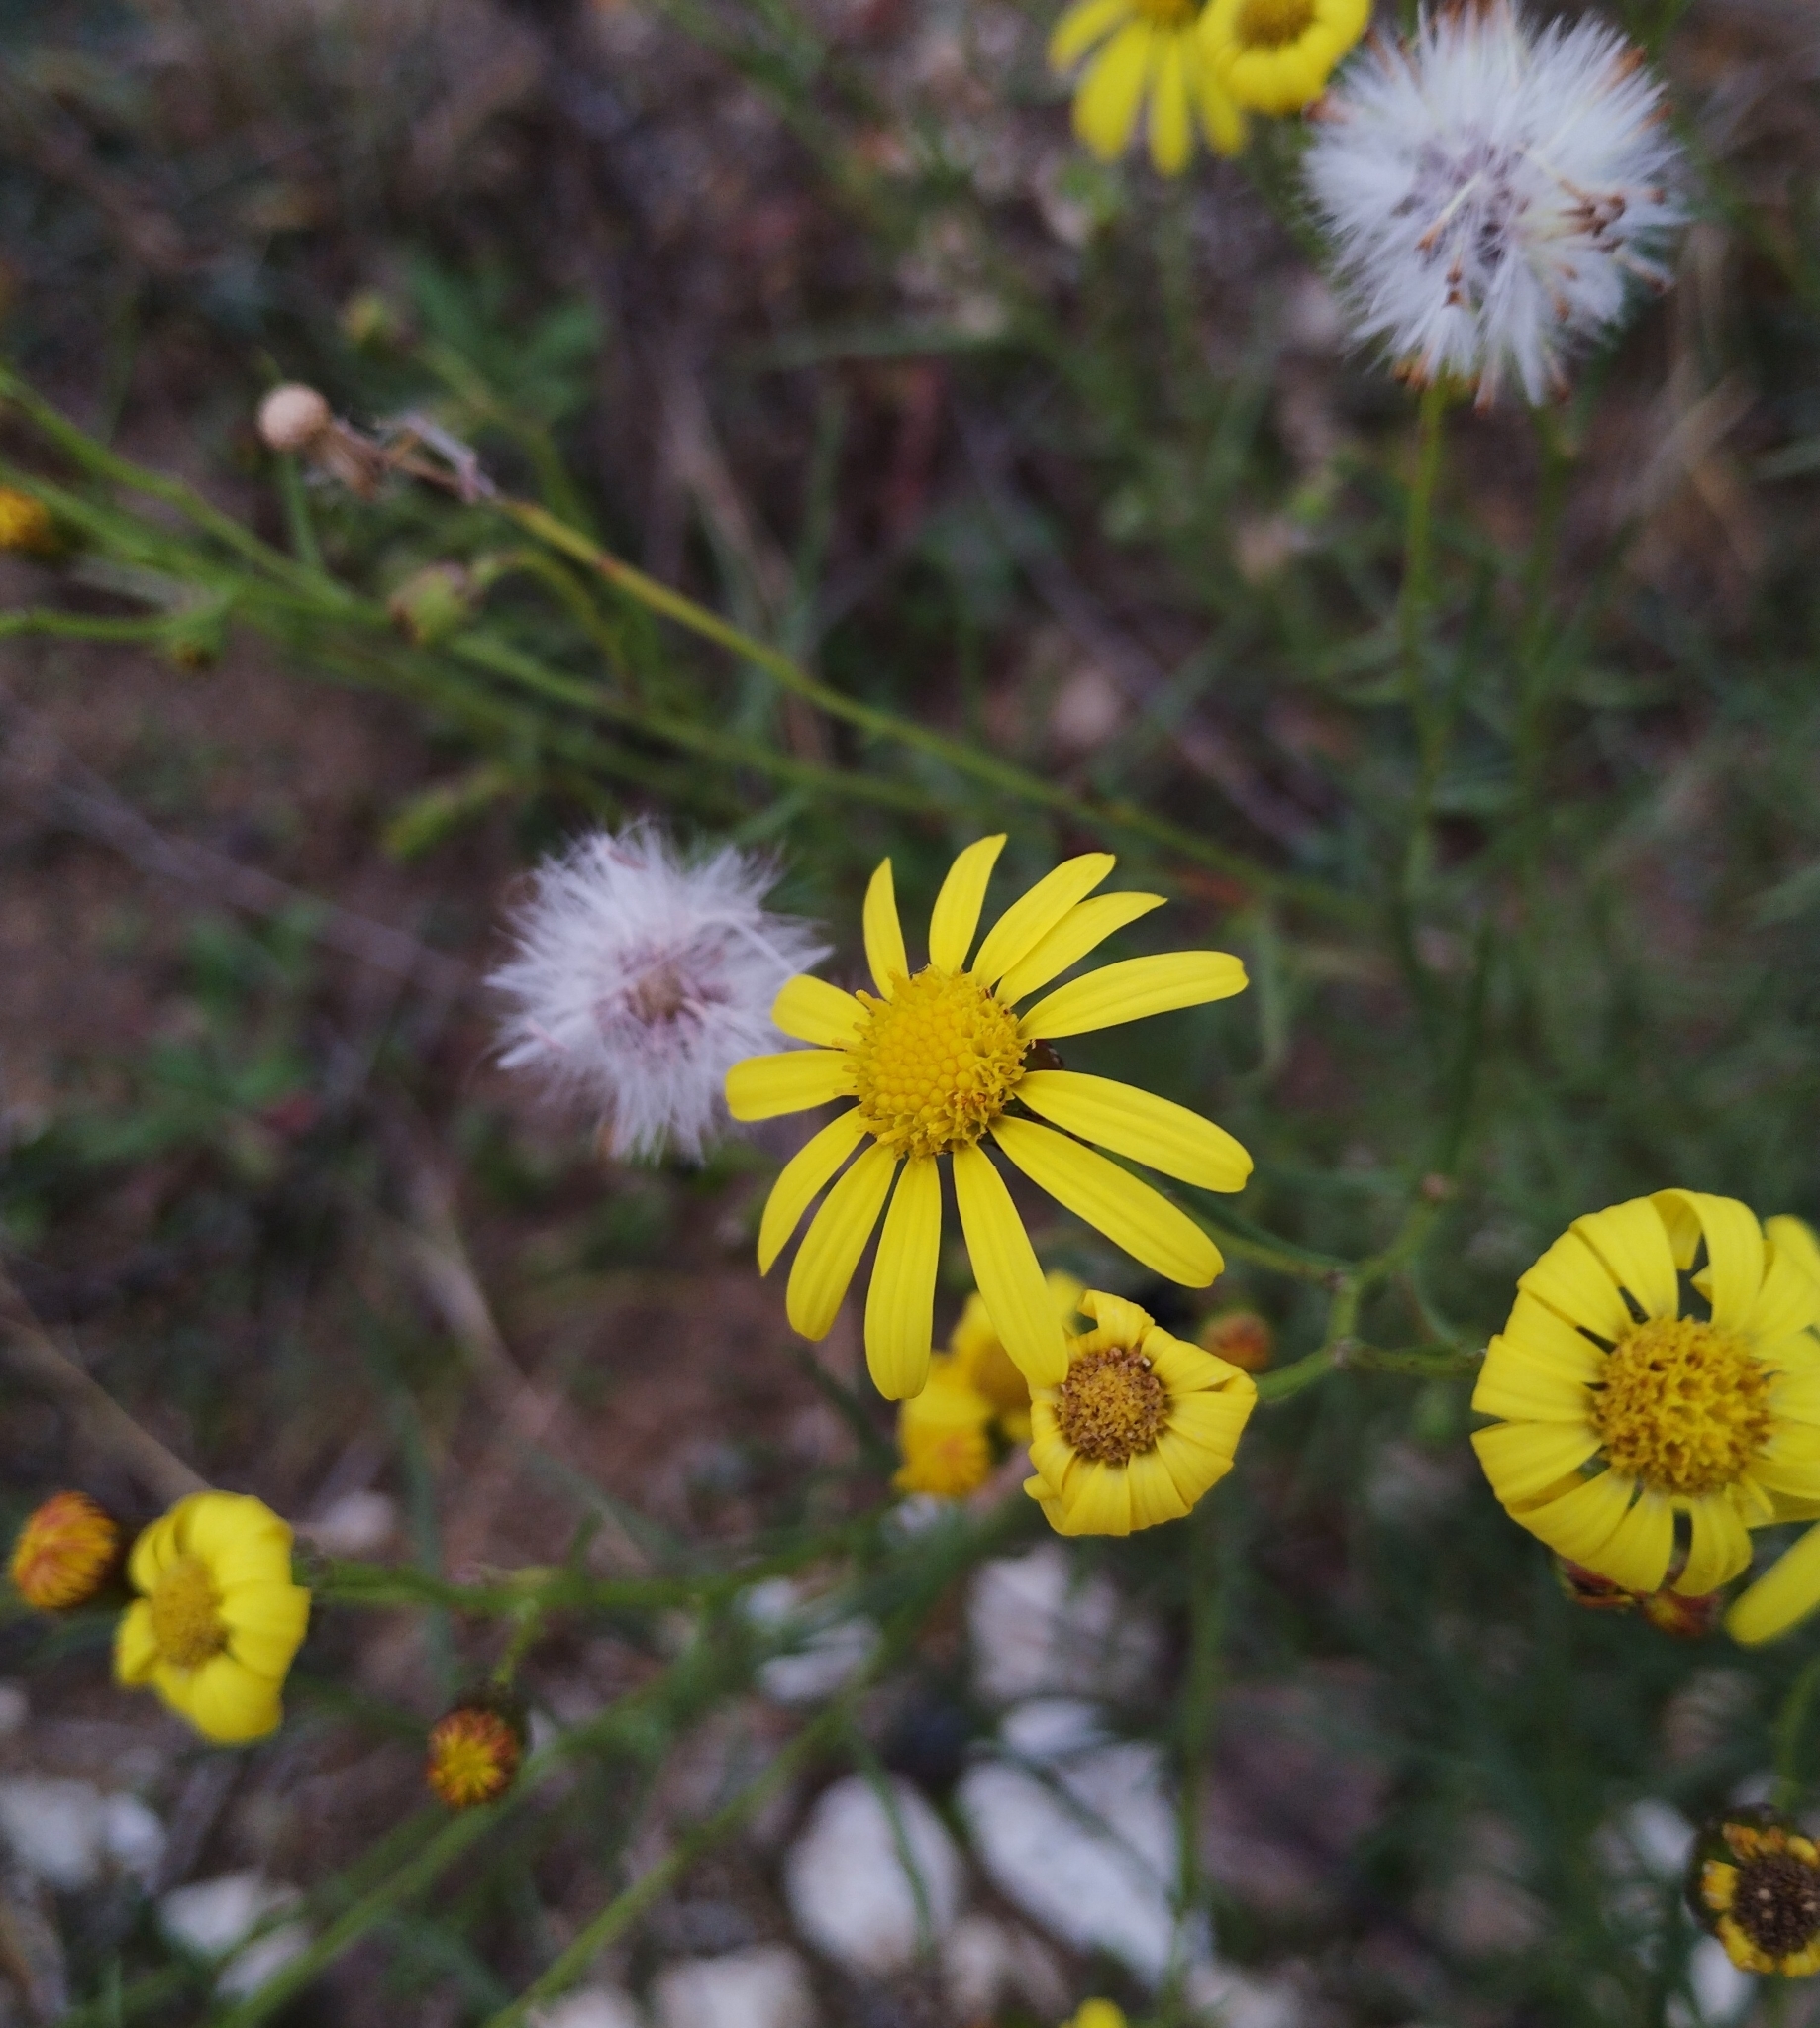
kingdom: Plantae
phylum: Tracheophyta
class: Magnoliopsida
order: Asterales
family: Asteraceae
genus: Senecio
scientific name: Senecio inaequidens
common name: Narrow-leaved ragwort
